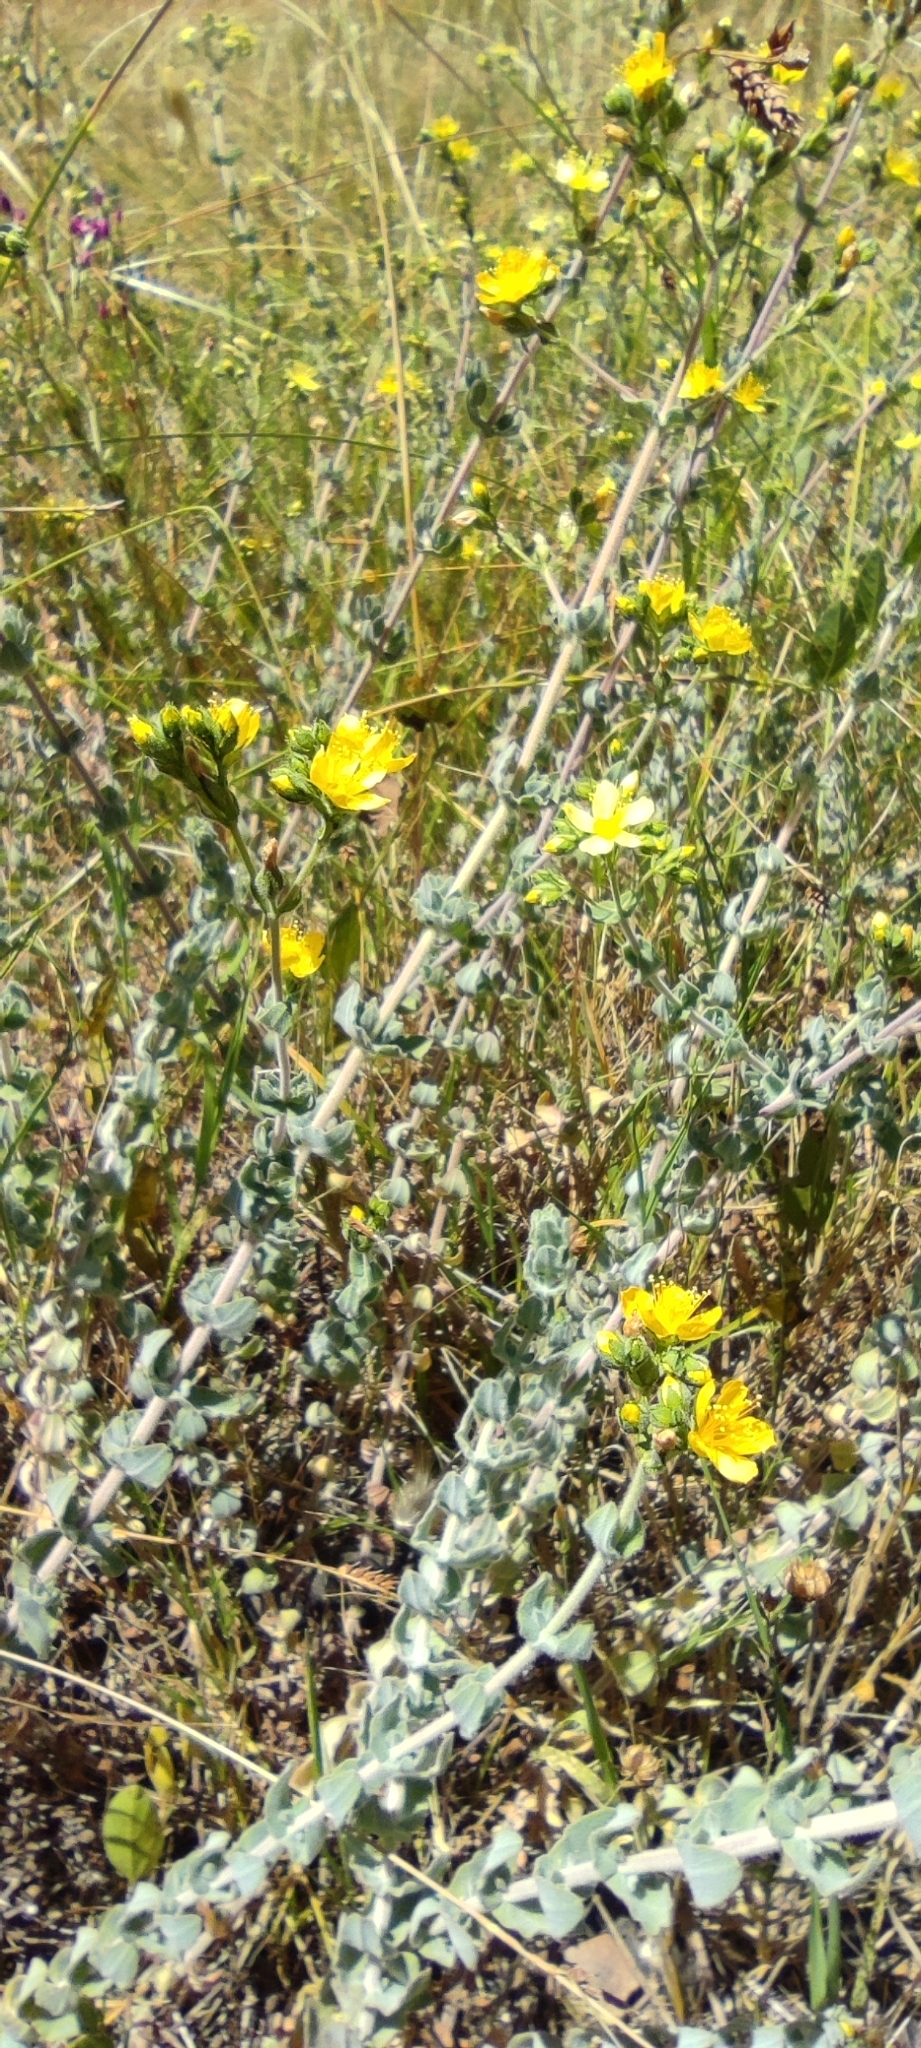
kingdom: Plantae
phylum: Tracheophyta
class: Magnoliopsida
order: Malpighiales
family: Hypericaceae
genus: Hypericum
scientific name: Hypericum tomentosum
